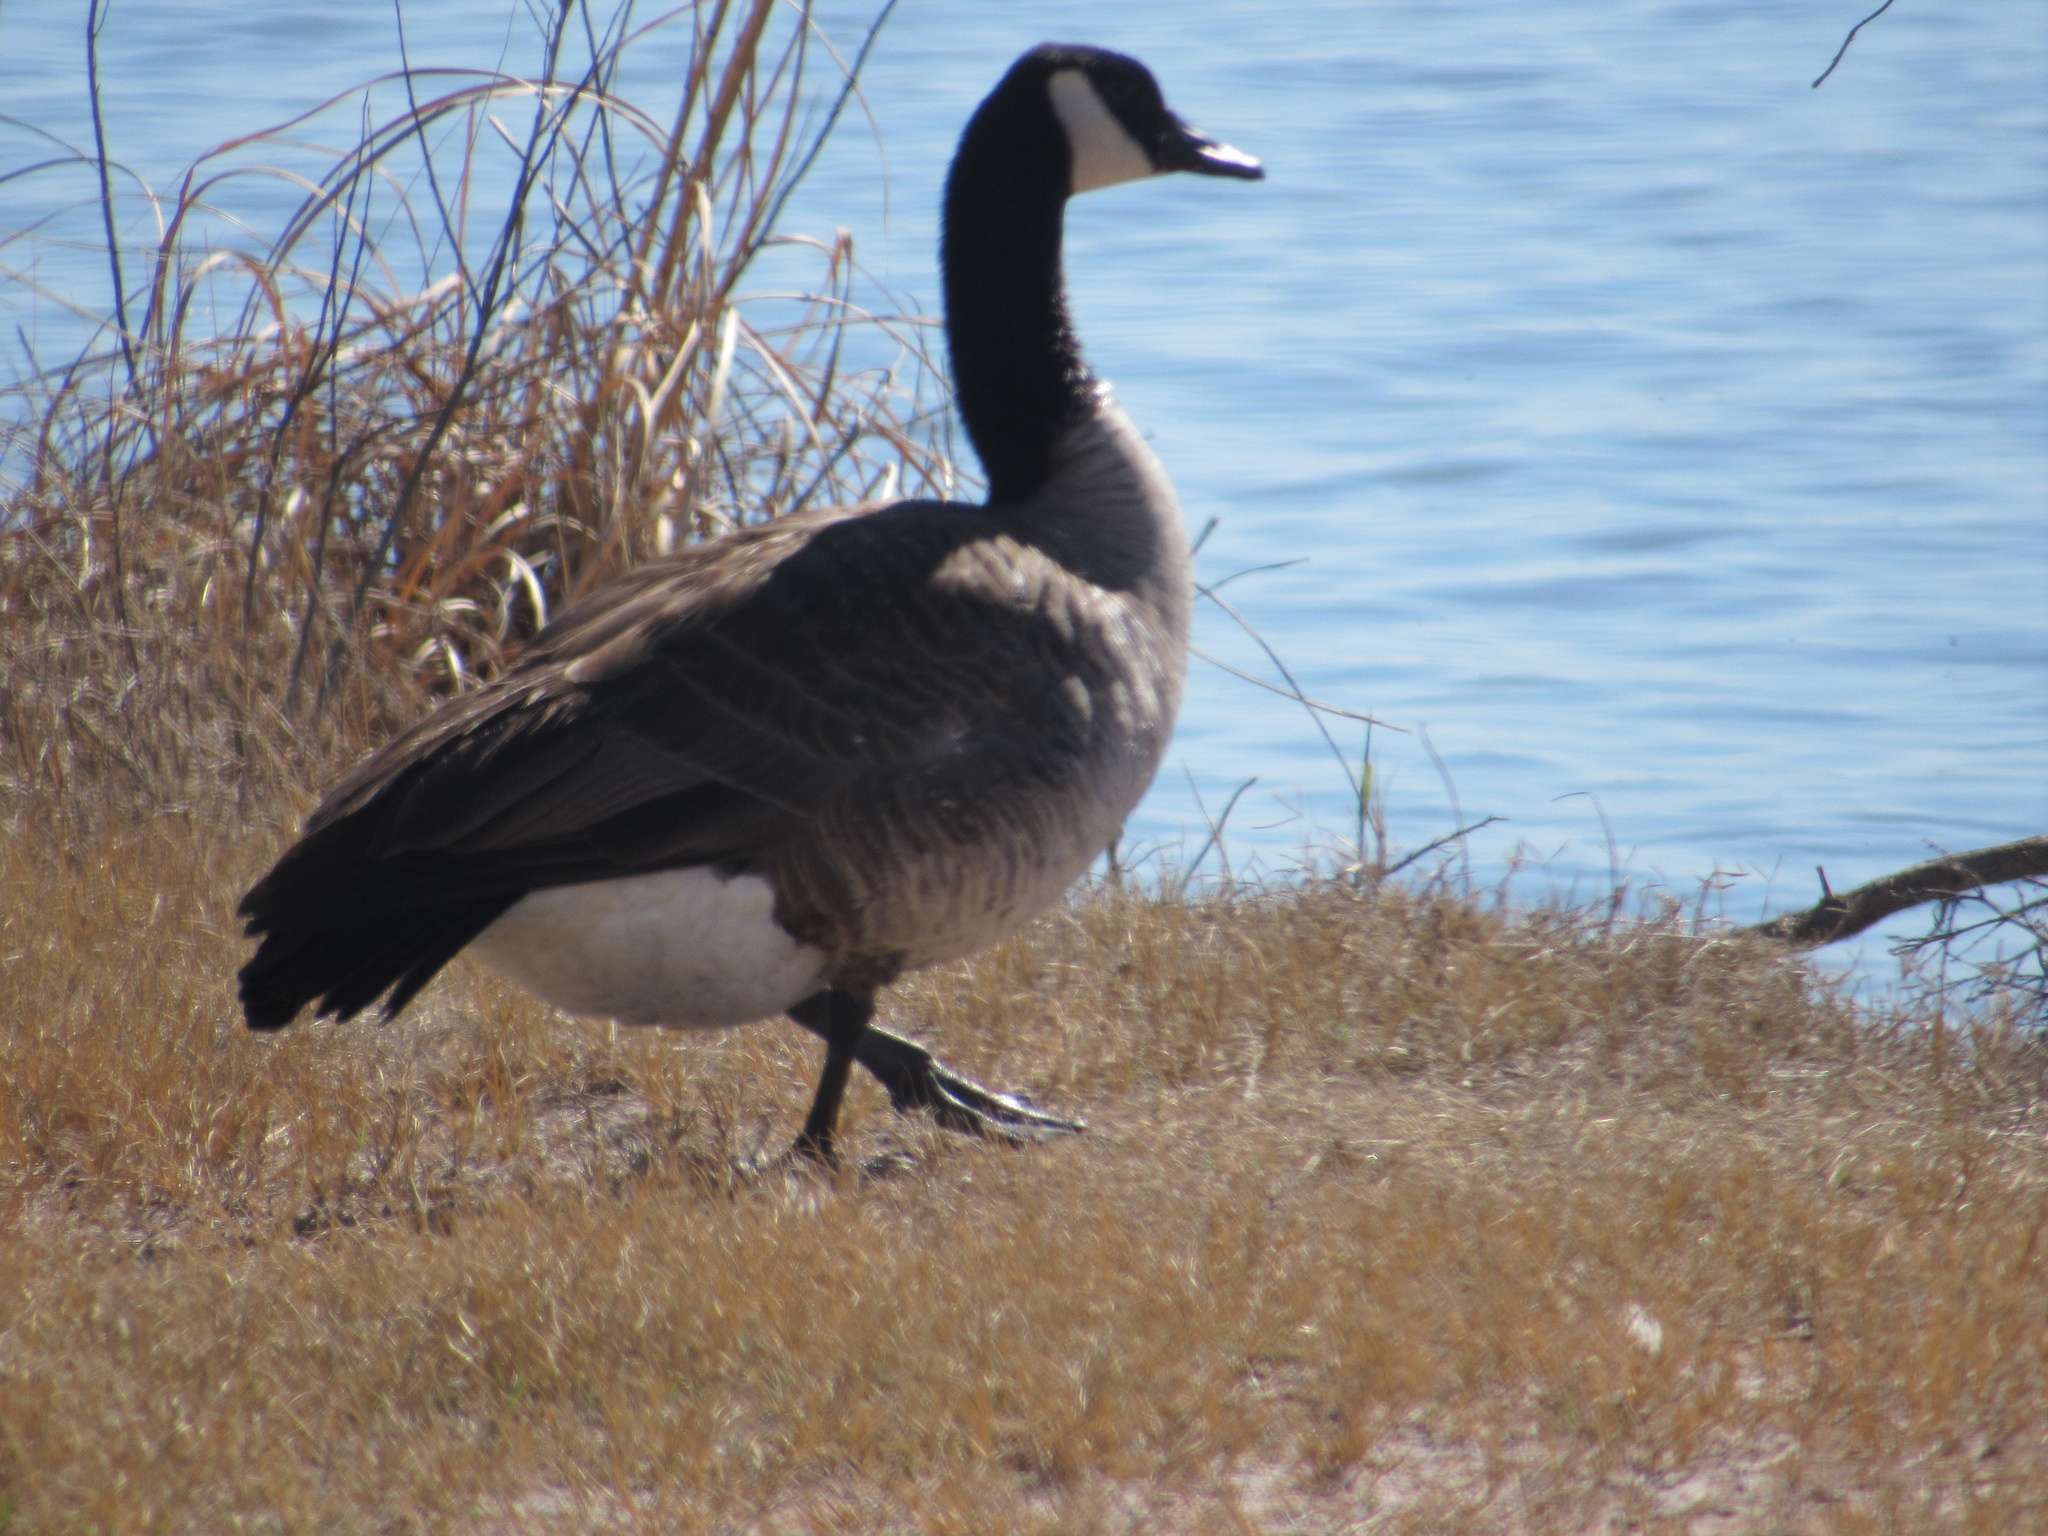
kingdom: Animalia
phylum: Chordata
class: Aves
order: Anseriformes
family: Anatidae
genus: Branta
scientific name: Branta canadensis
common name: Canada goose
